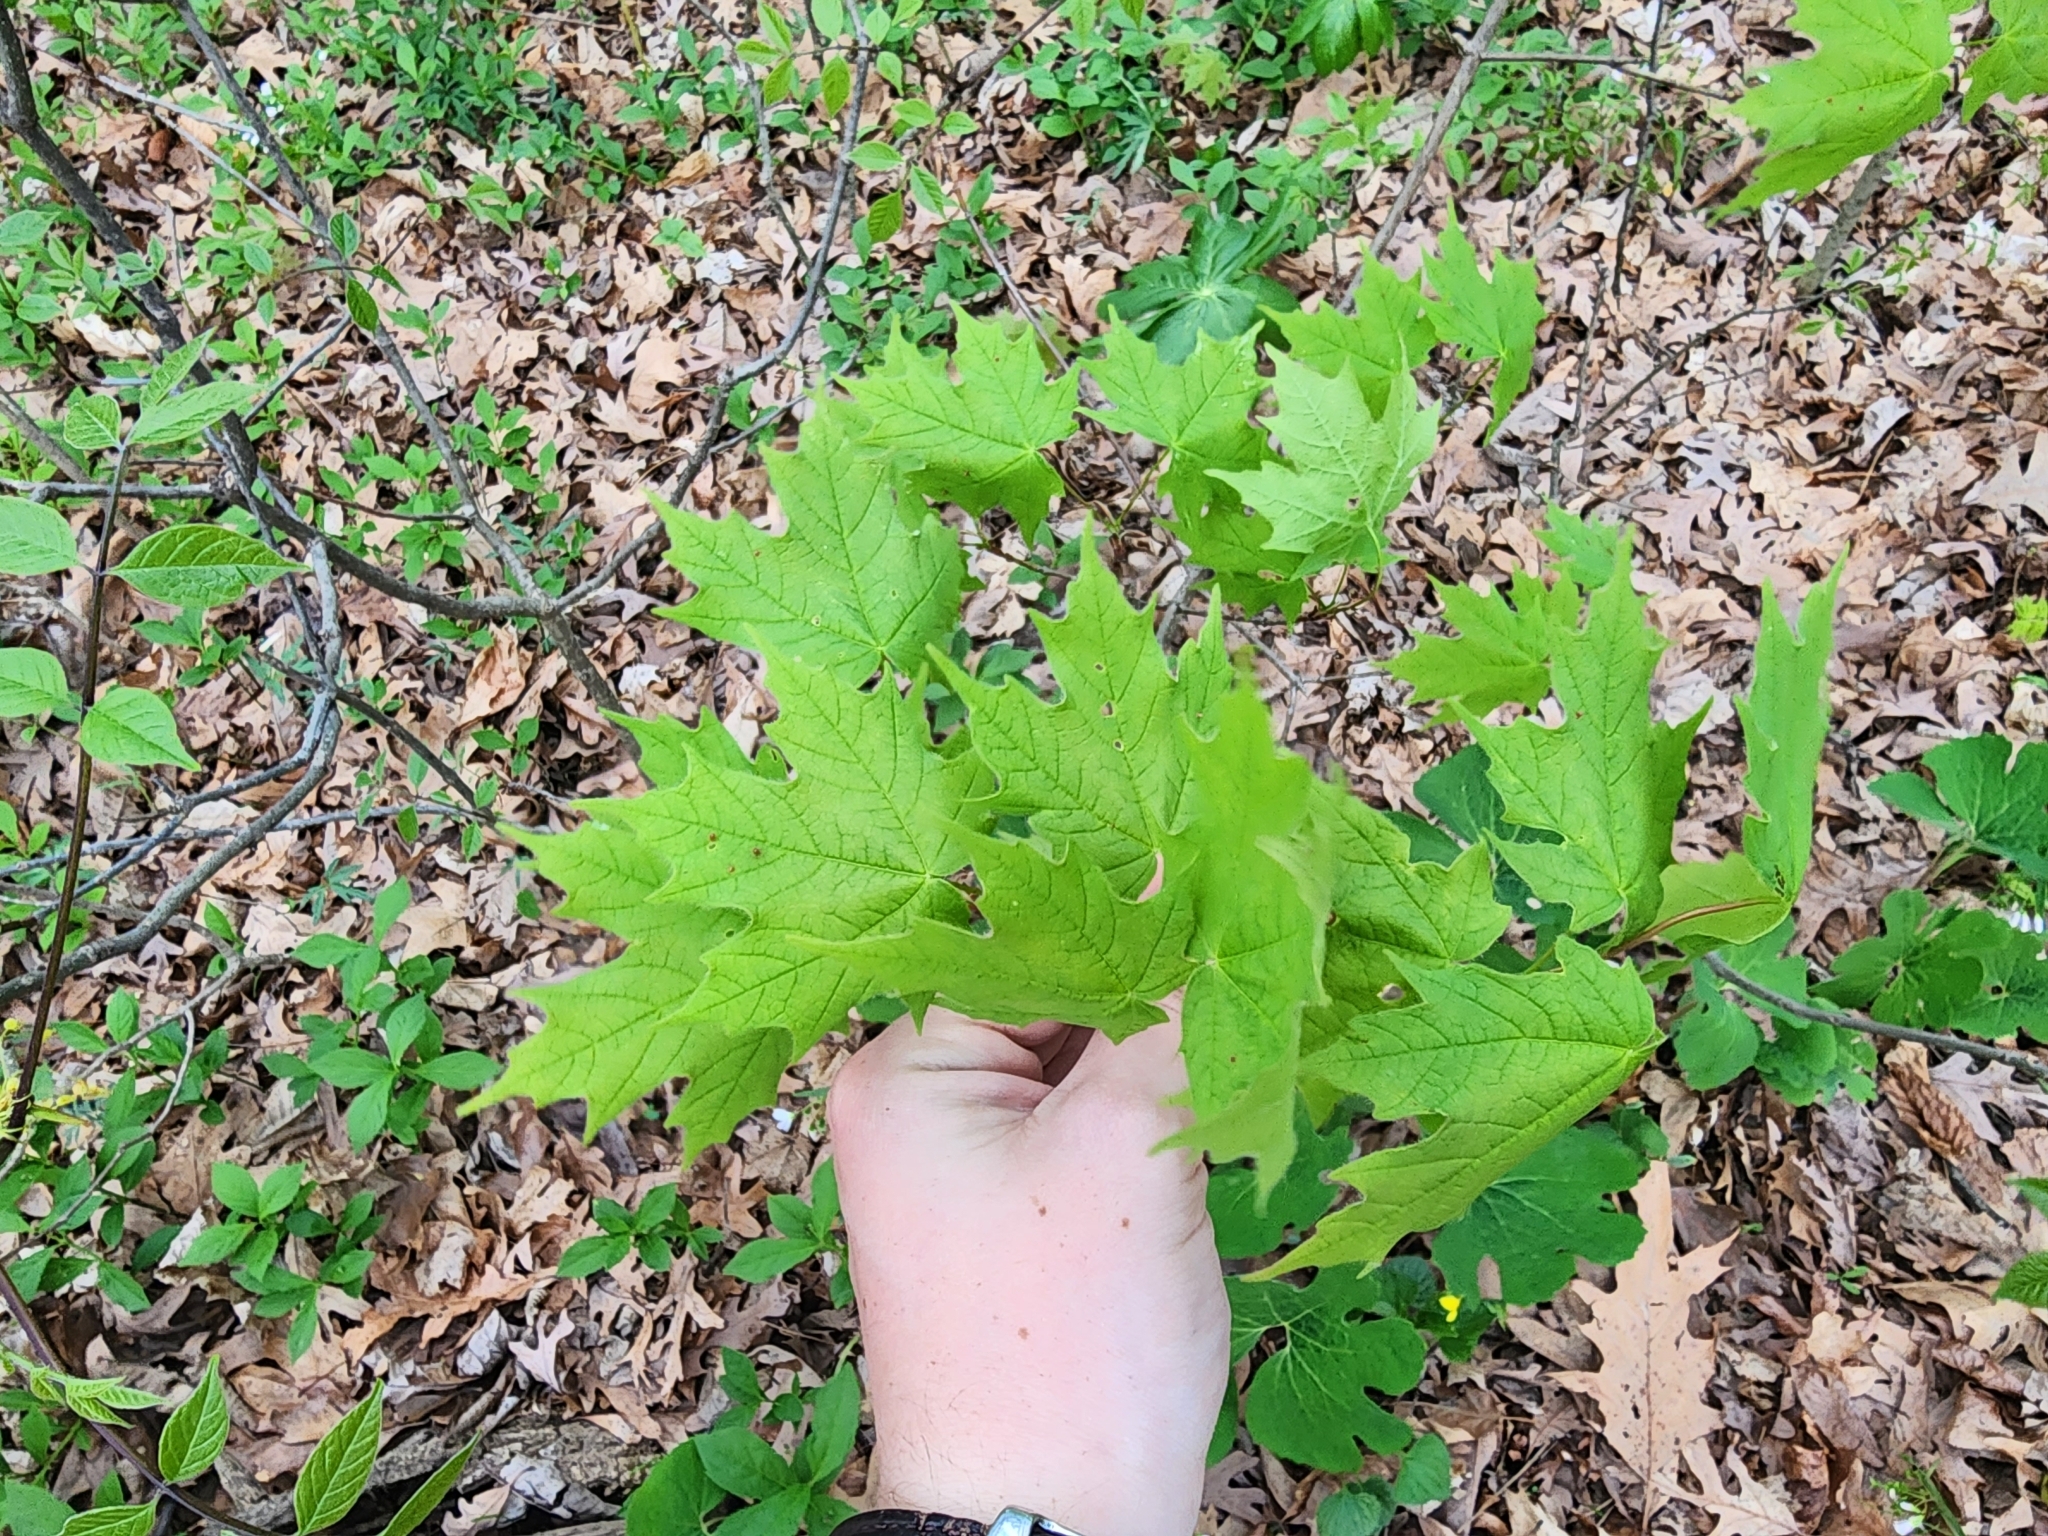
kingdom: Plantae
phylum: Tracheophyta
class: Magnoliopsida
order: Sapindales
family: Sapindaceae
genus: Acer
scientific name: Acer saccharum
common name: Sugar maple
